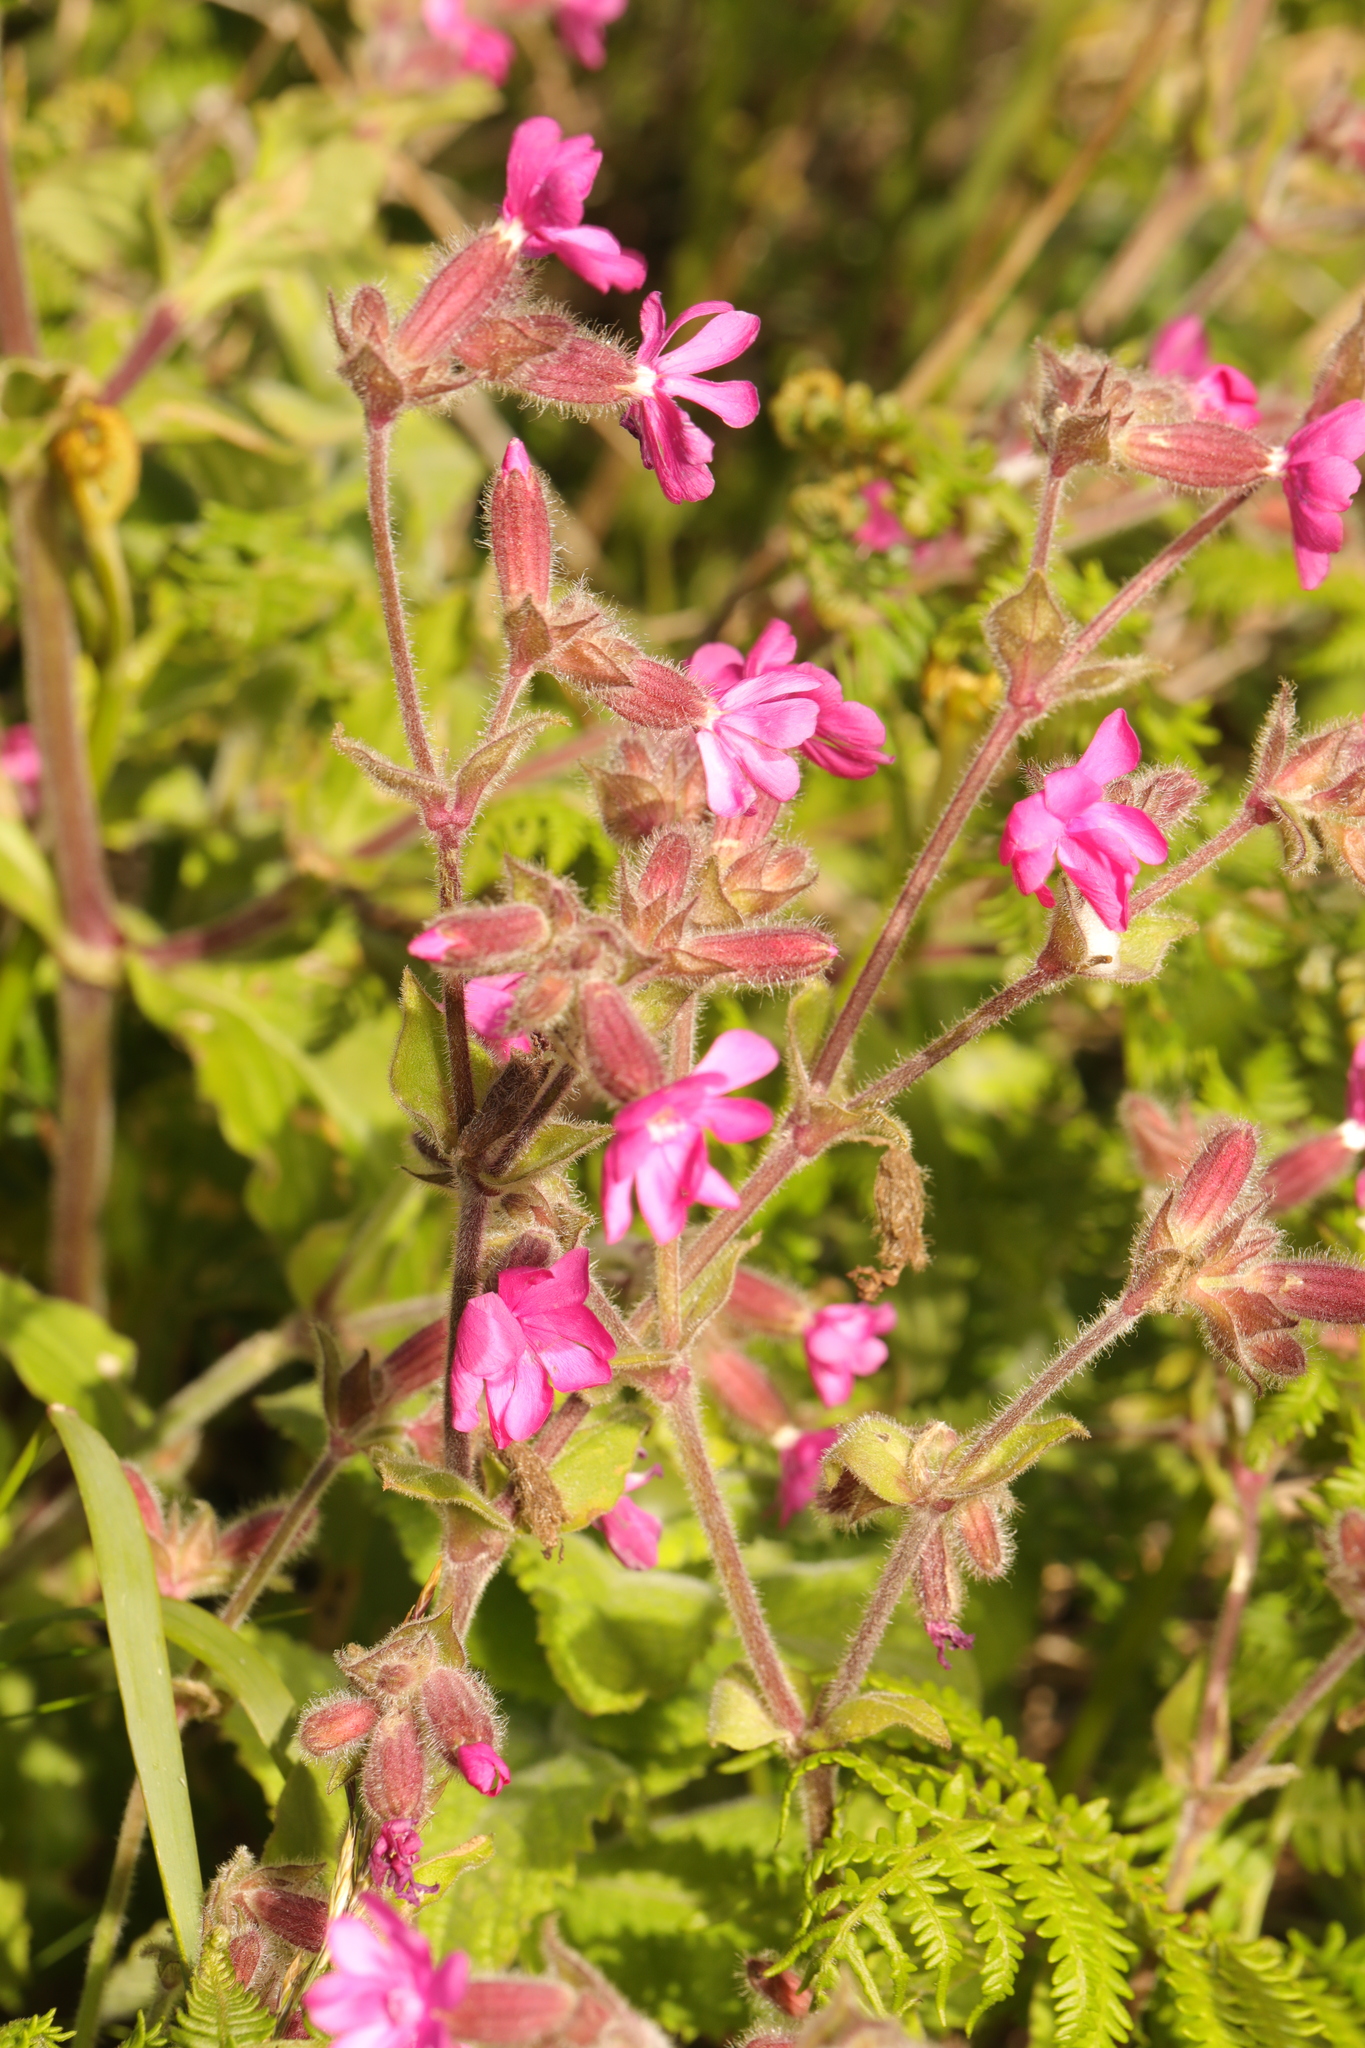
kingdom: Plantae
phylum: Tracheophyta
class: Magnoliopsida
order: Caryophyllales
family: Caryophyllaceae
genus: Silene
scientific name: Silene dioica
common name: Red campion
